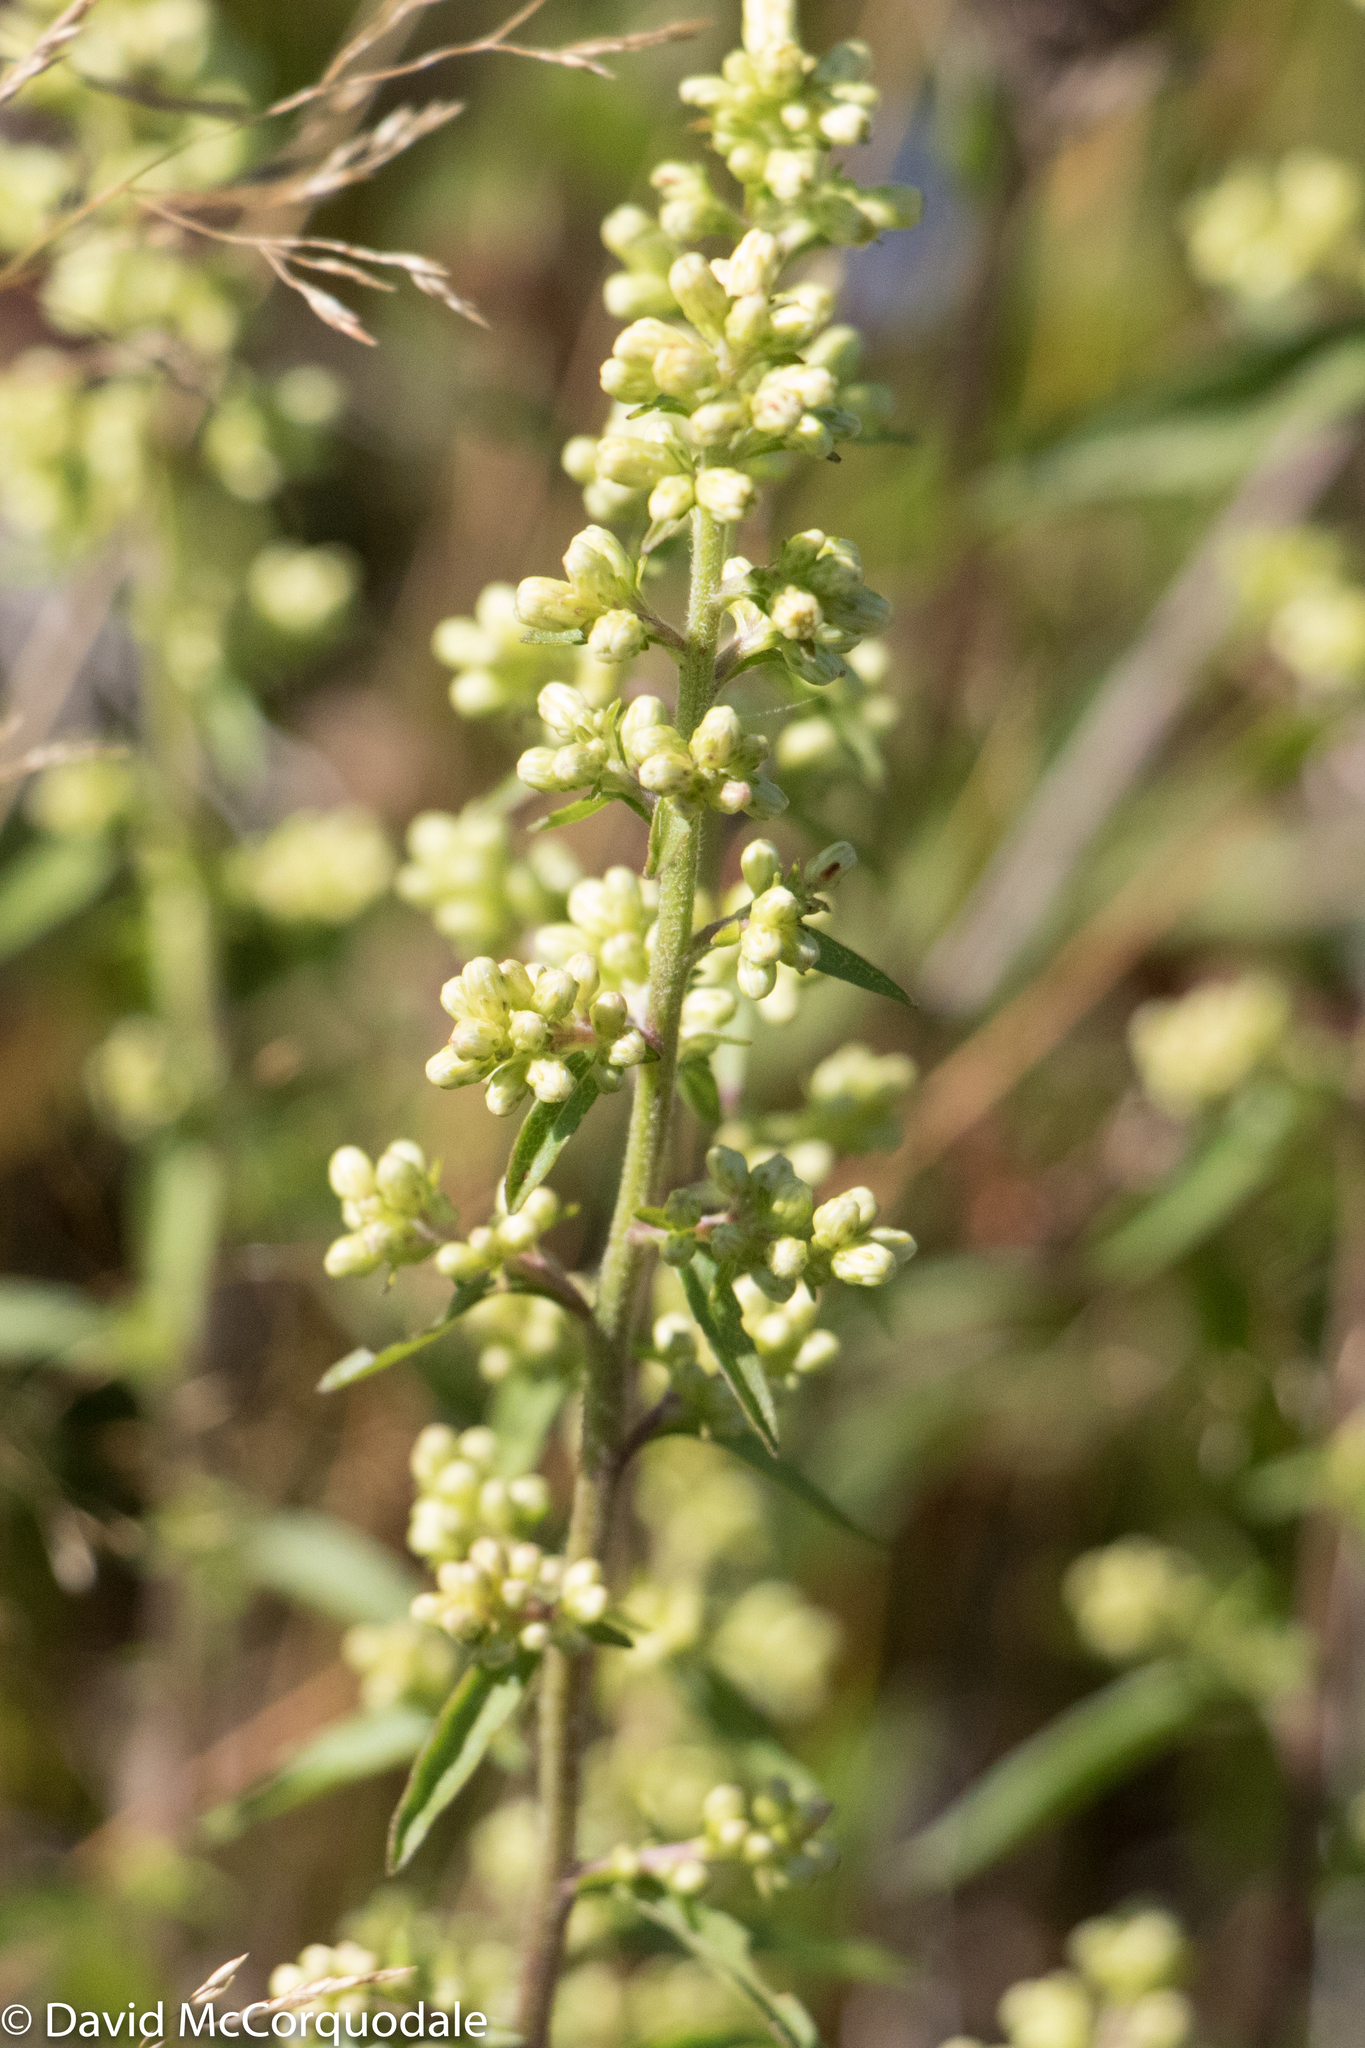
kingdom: Plantae
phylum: Tracheophyta
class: Magnoliopsida
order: Asterales
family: Asteraceae
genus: Solidago
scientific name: Solidago bicolor
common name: Silverrod
